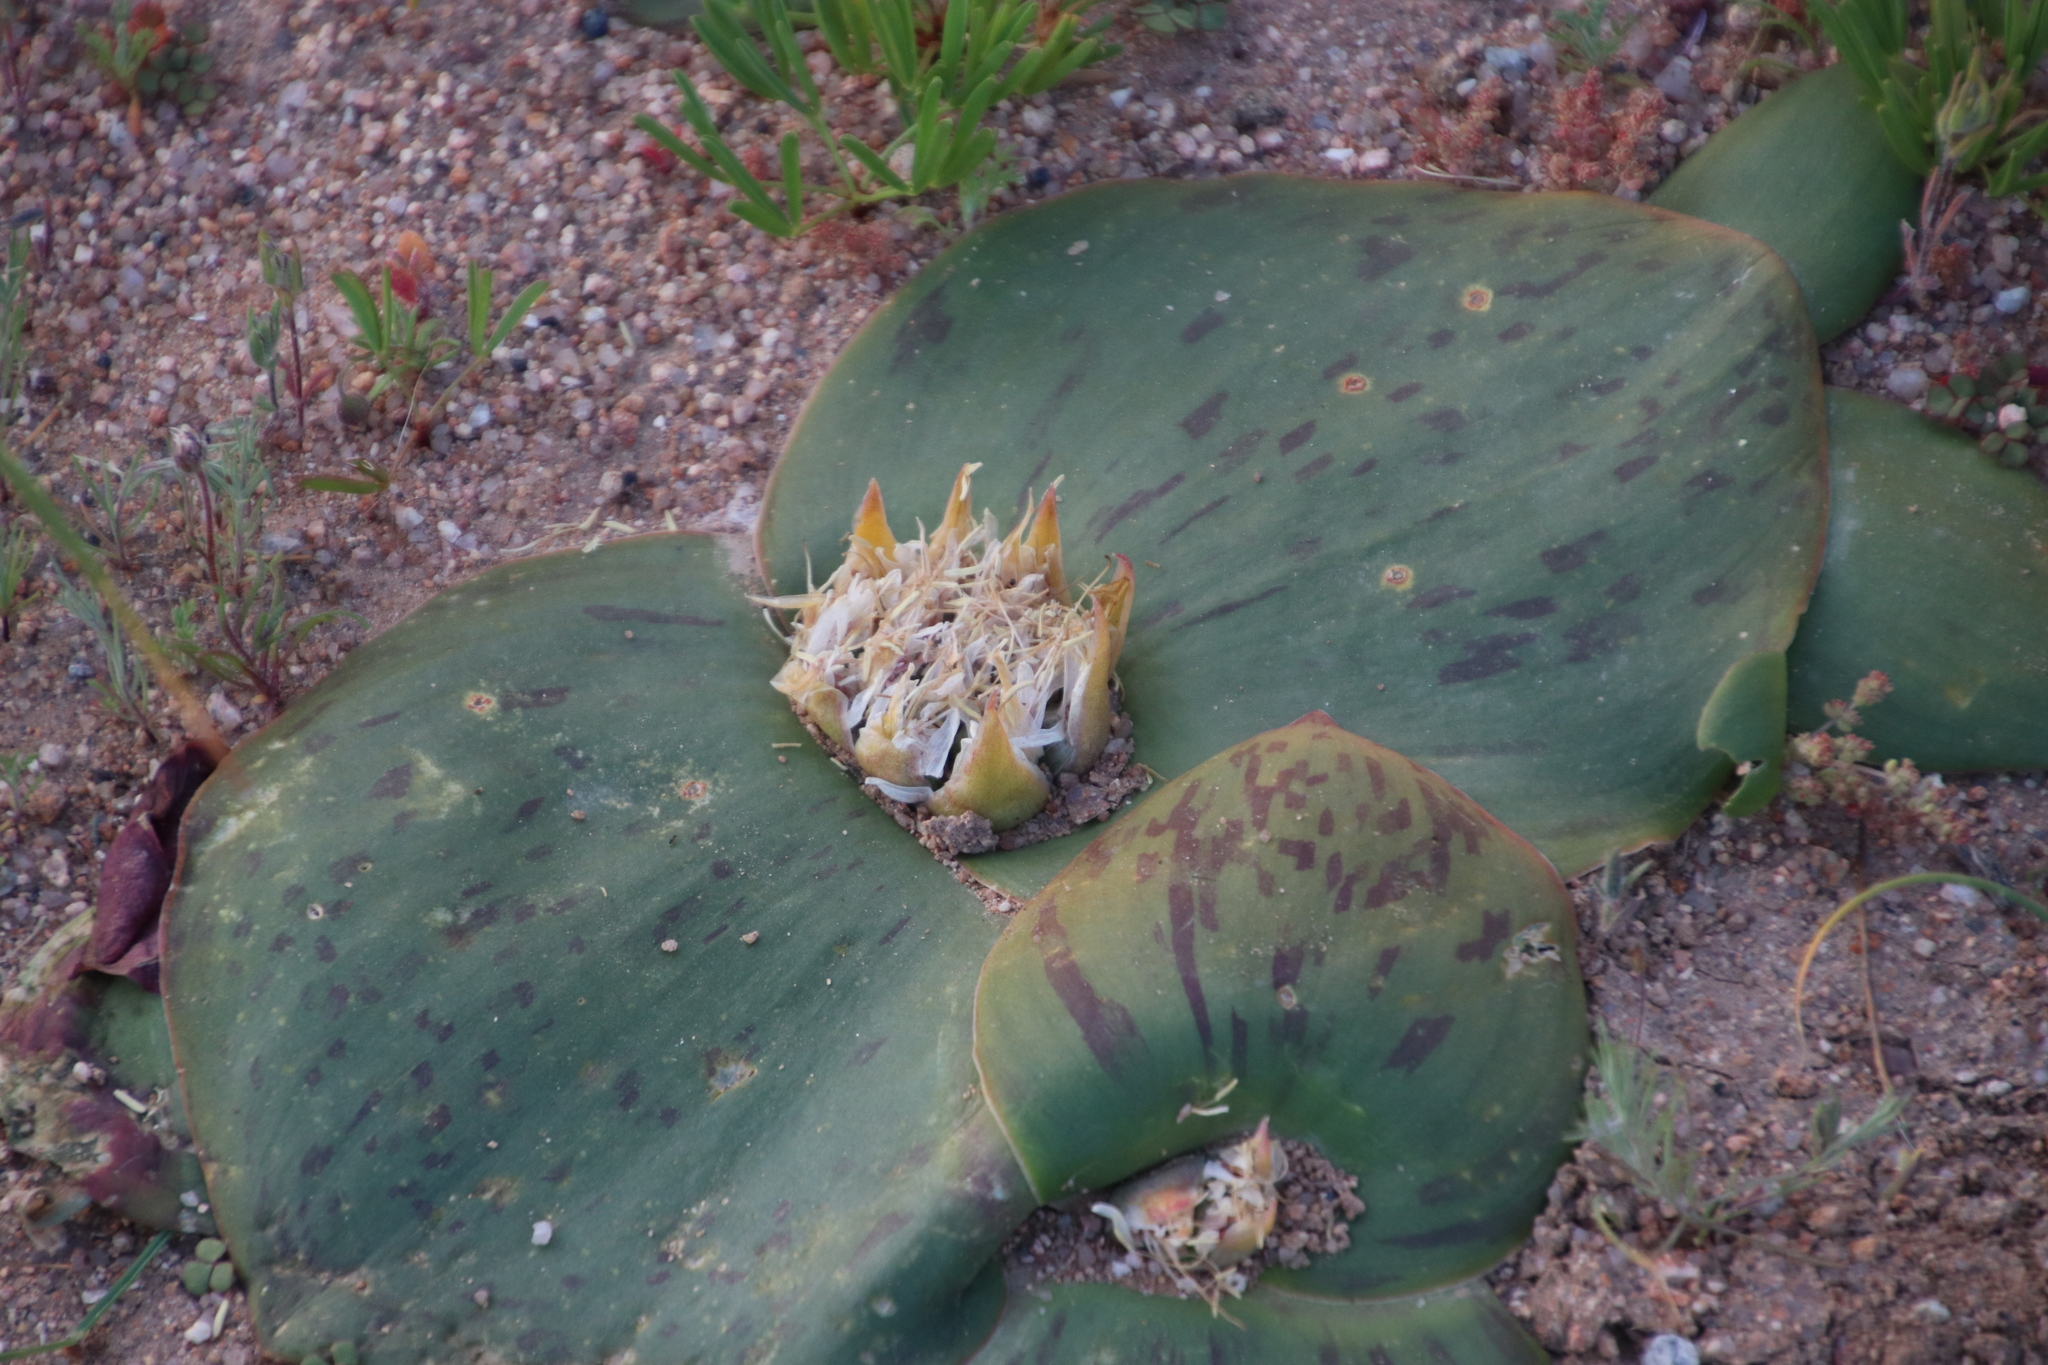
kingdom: Plantae
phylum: Tracheophyta
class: Liliopsida
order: Asparagales
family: Asparagaceae
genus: Massonia
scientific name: Massonia depressa
